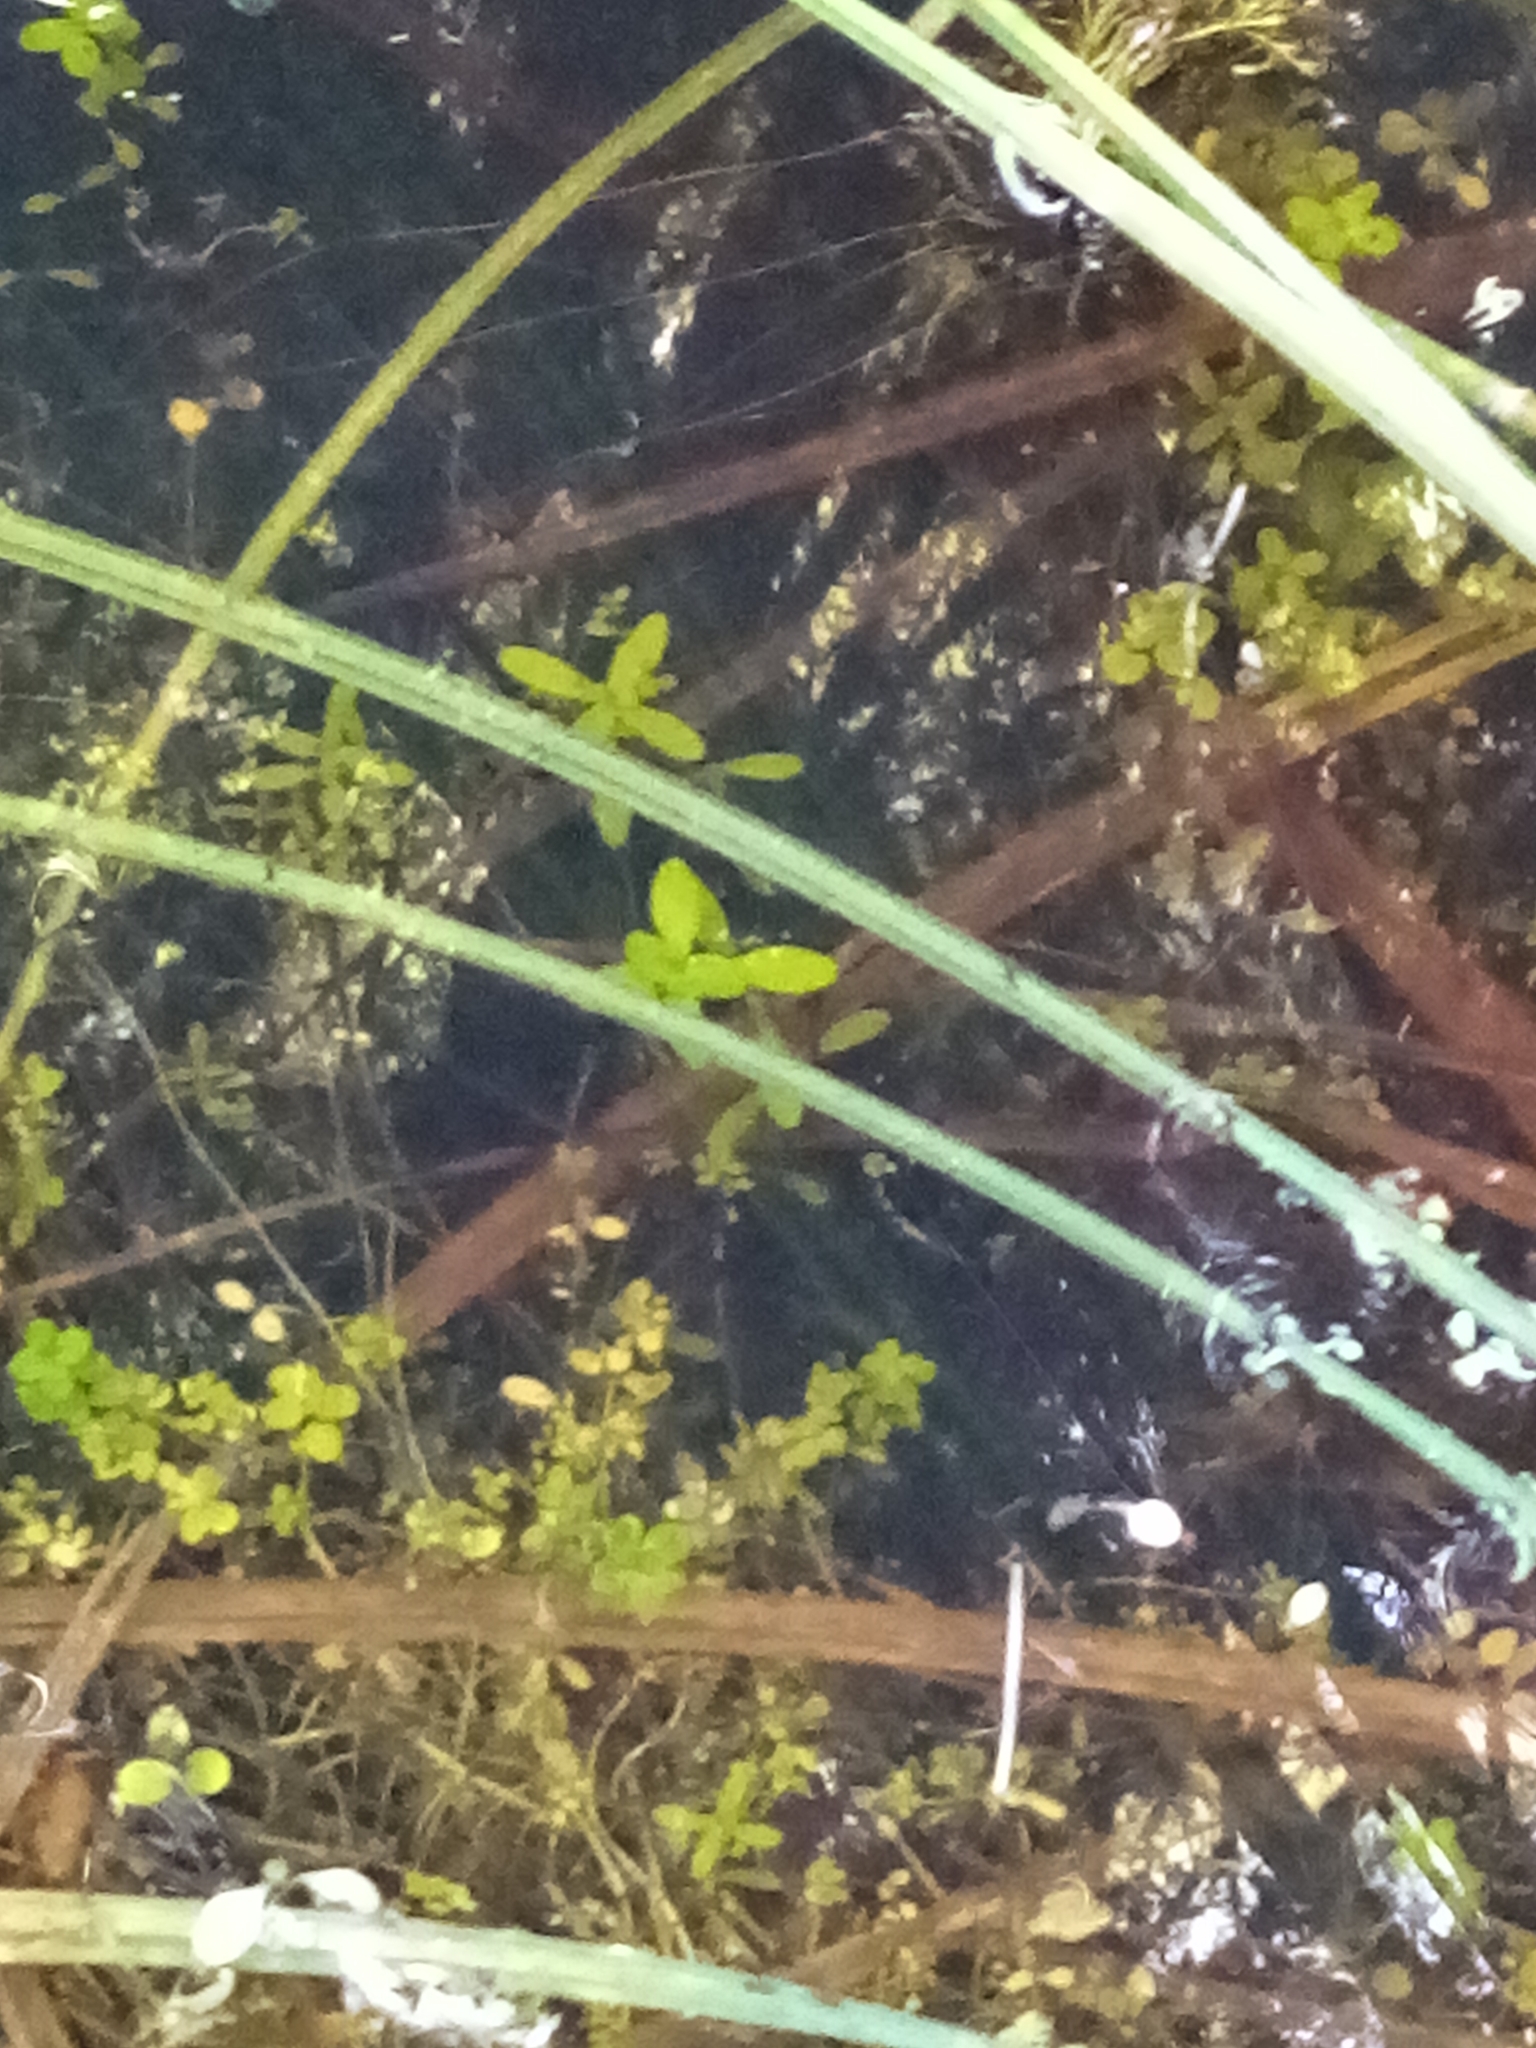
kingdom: Plantae
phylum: Tracheophyta
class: Magnoliopsida
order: Lamiales
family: Plantaginaceae
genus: Callitriche
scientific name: Callitriche petriei
